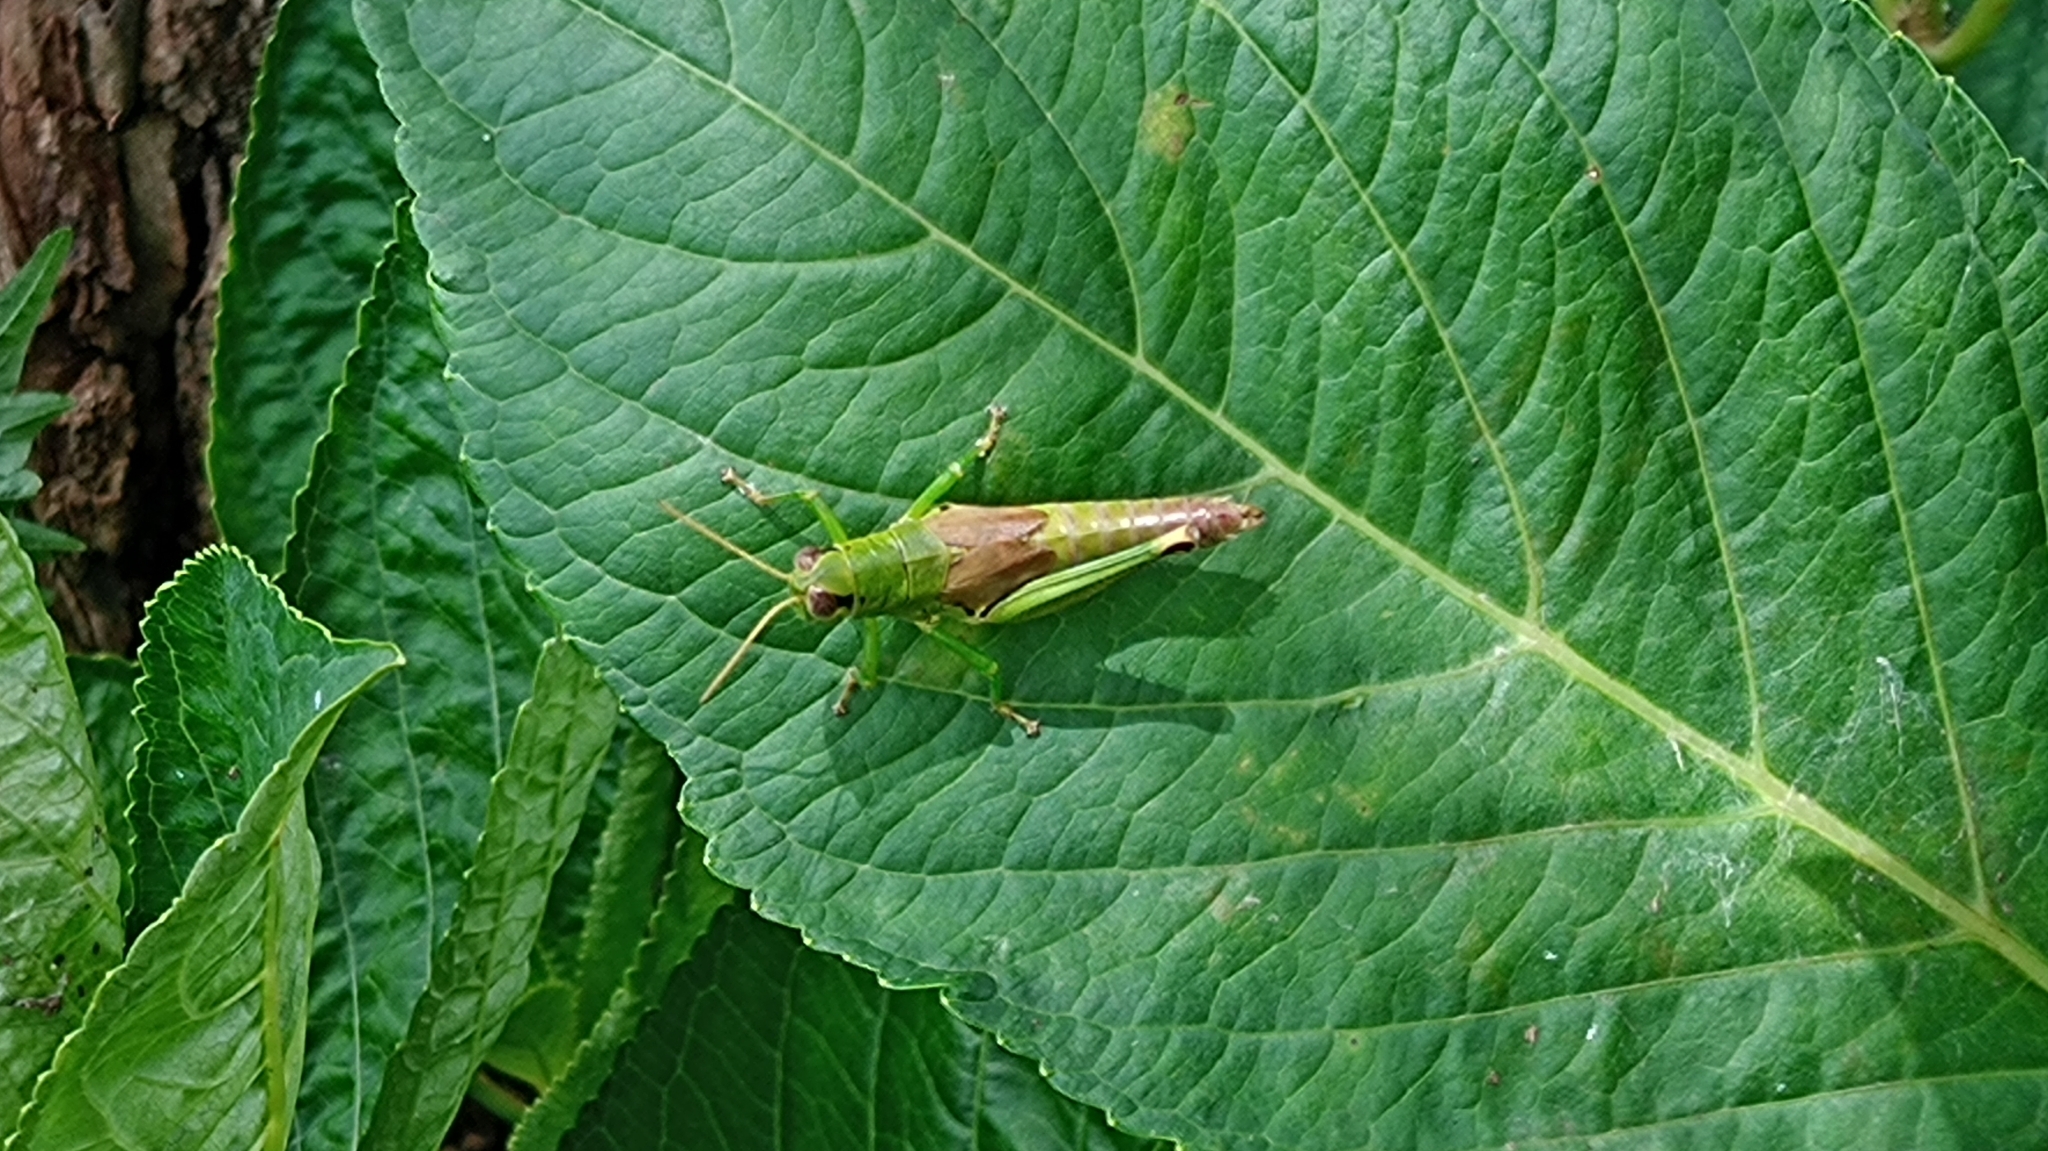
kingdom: Animalia
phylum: Arthropoda
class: Insecta
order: Orthoptera
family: Acrididae
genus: Parapodisma
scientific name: Parapodisma mikado
